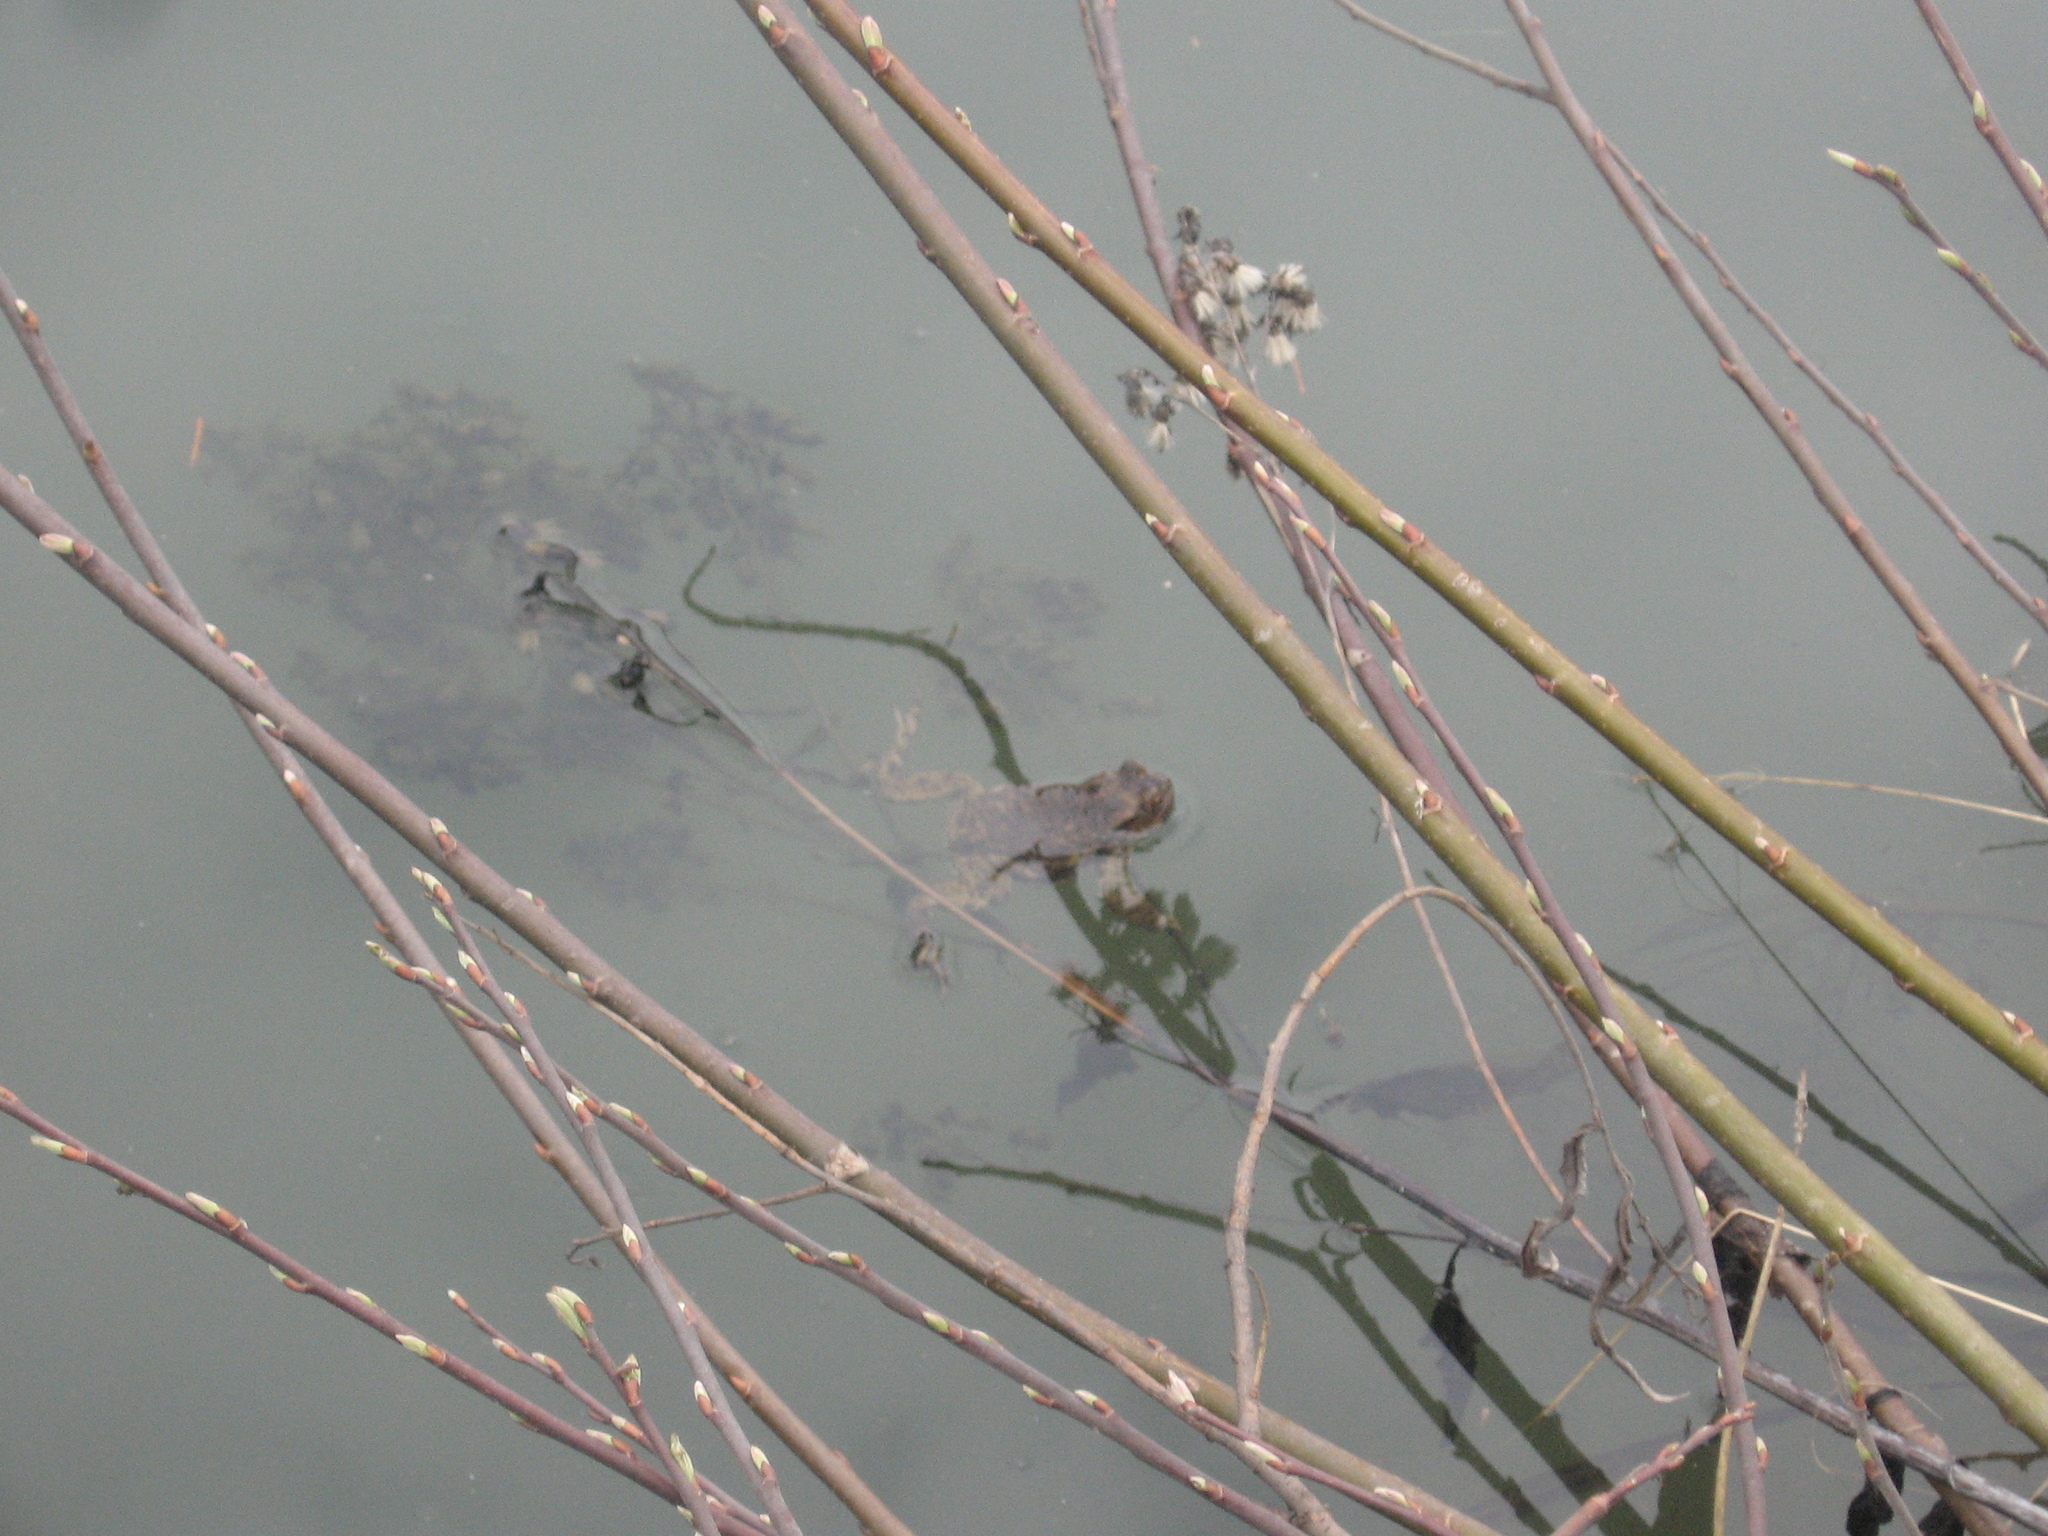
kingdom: Animalia
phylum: Chordata
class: Amphibia
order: Anura
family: Bufonidae
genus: Bufo
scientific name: Bufo bufo
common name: Common toad
